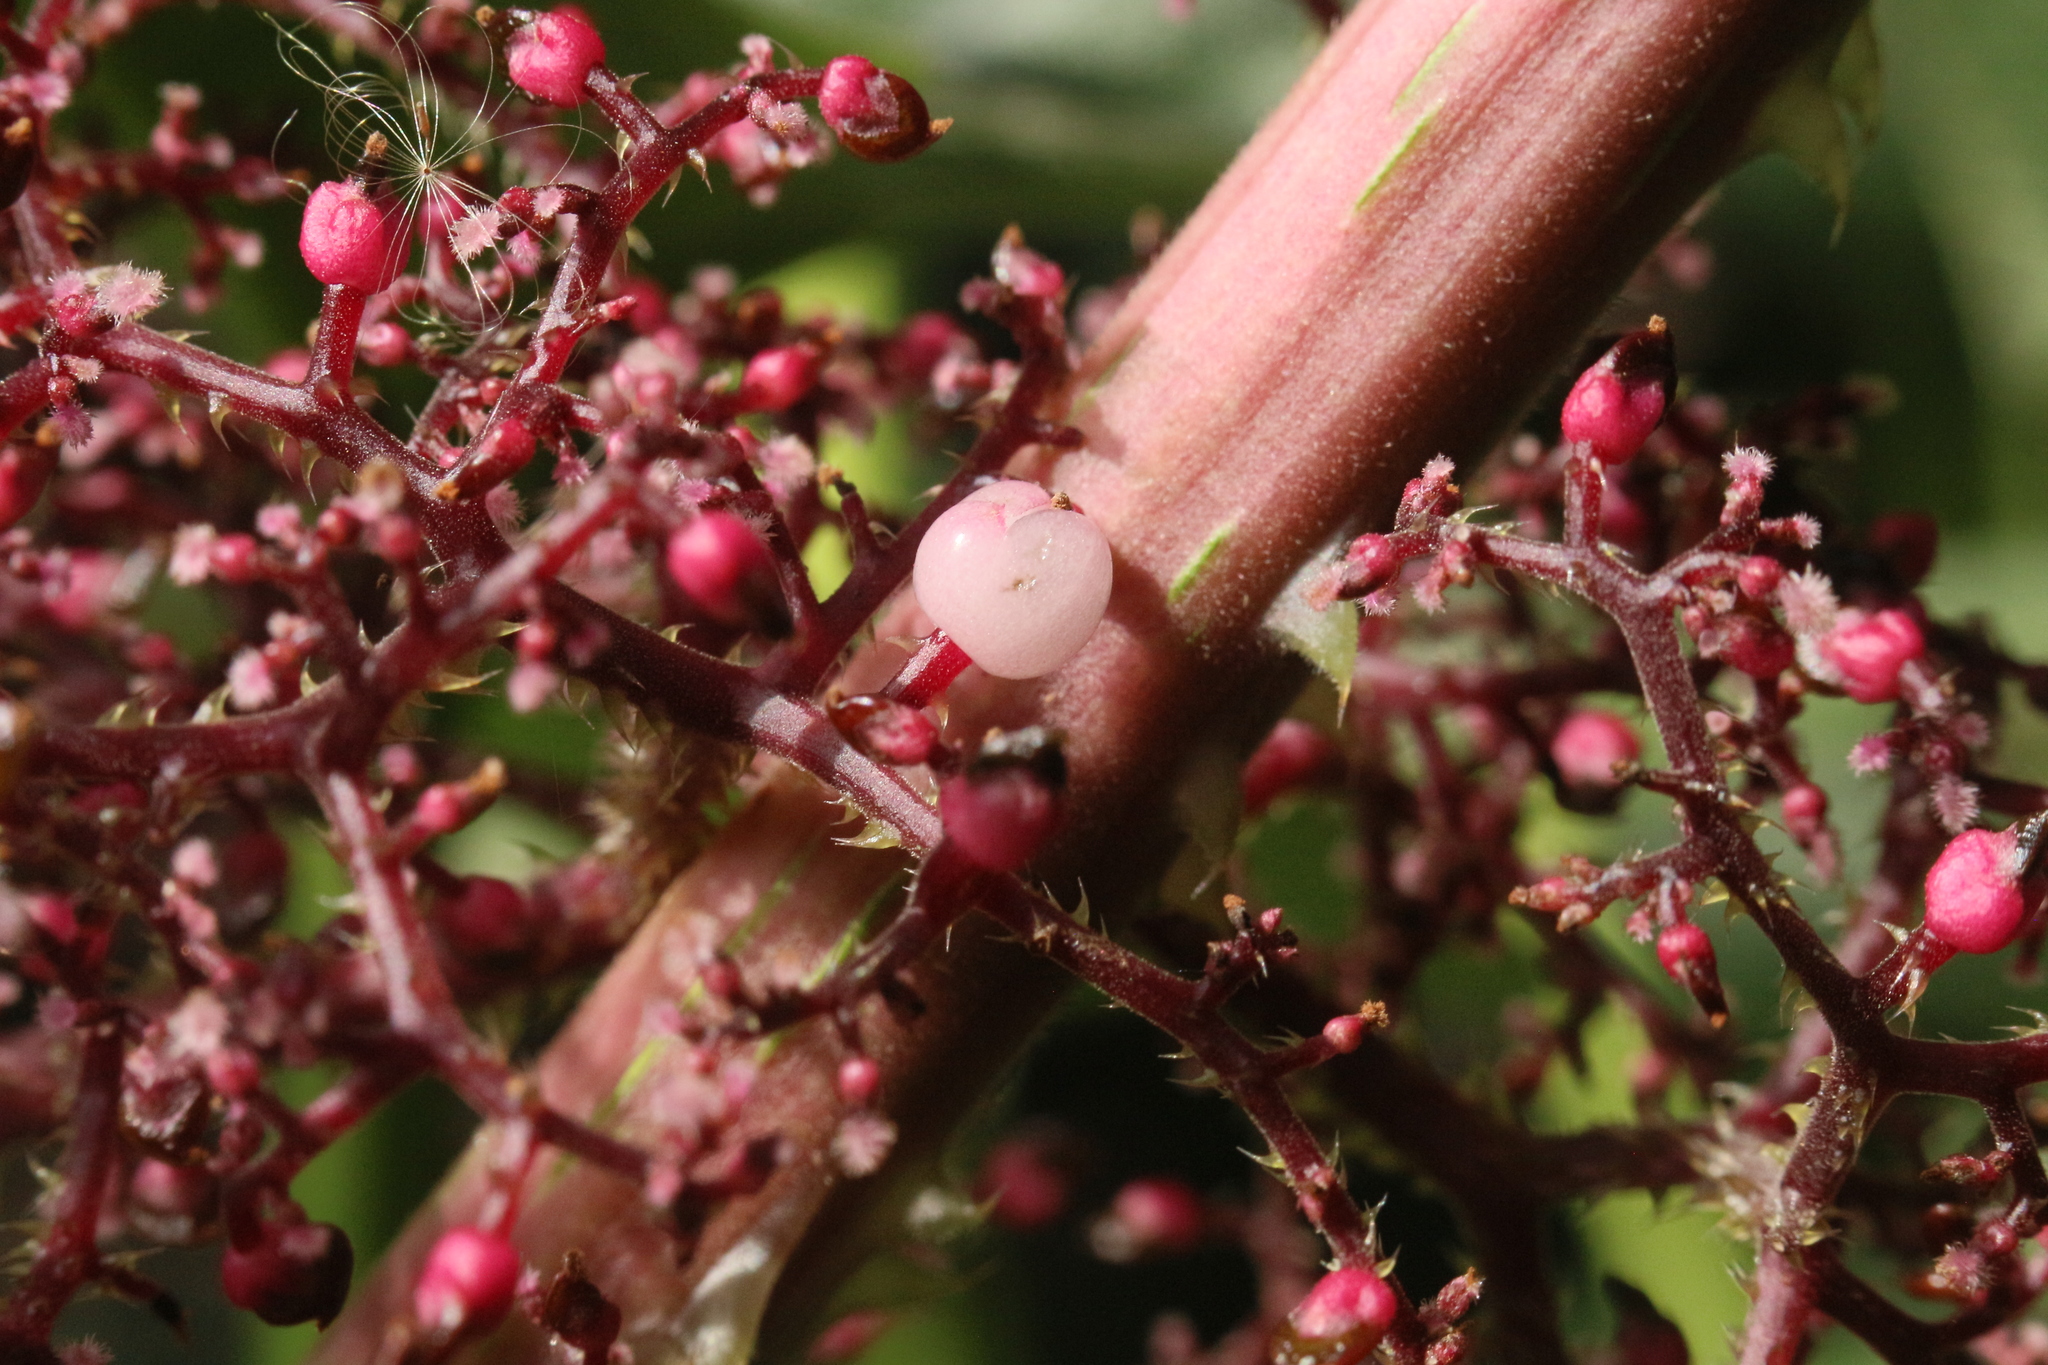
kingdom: Plantae
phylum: Tracheophyta
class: Magnoliopsida
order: Rosales
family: Urticaceae
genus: Urera
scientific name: Urera baccifera
